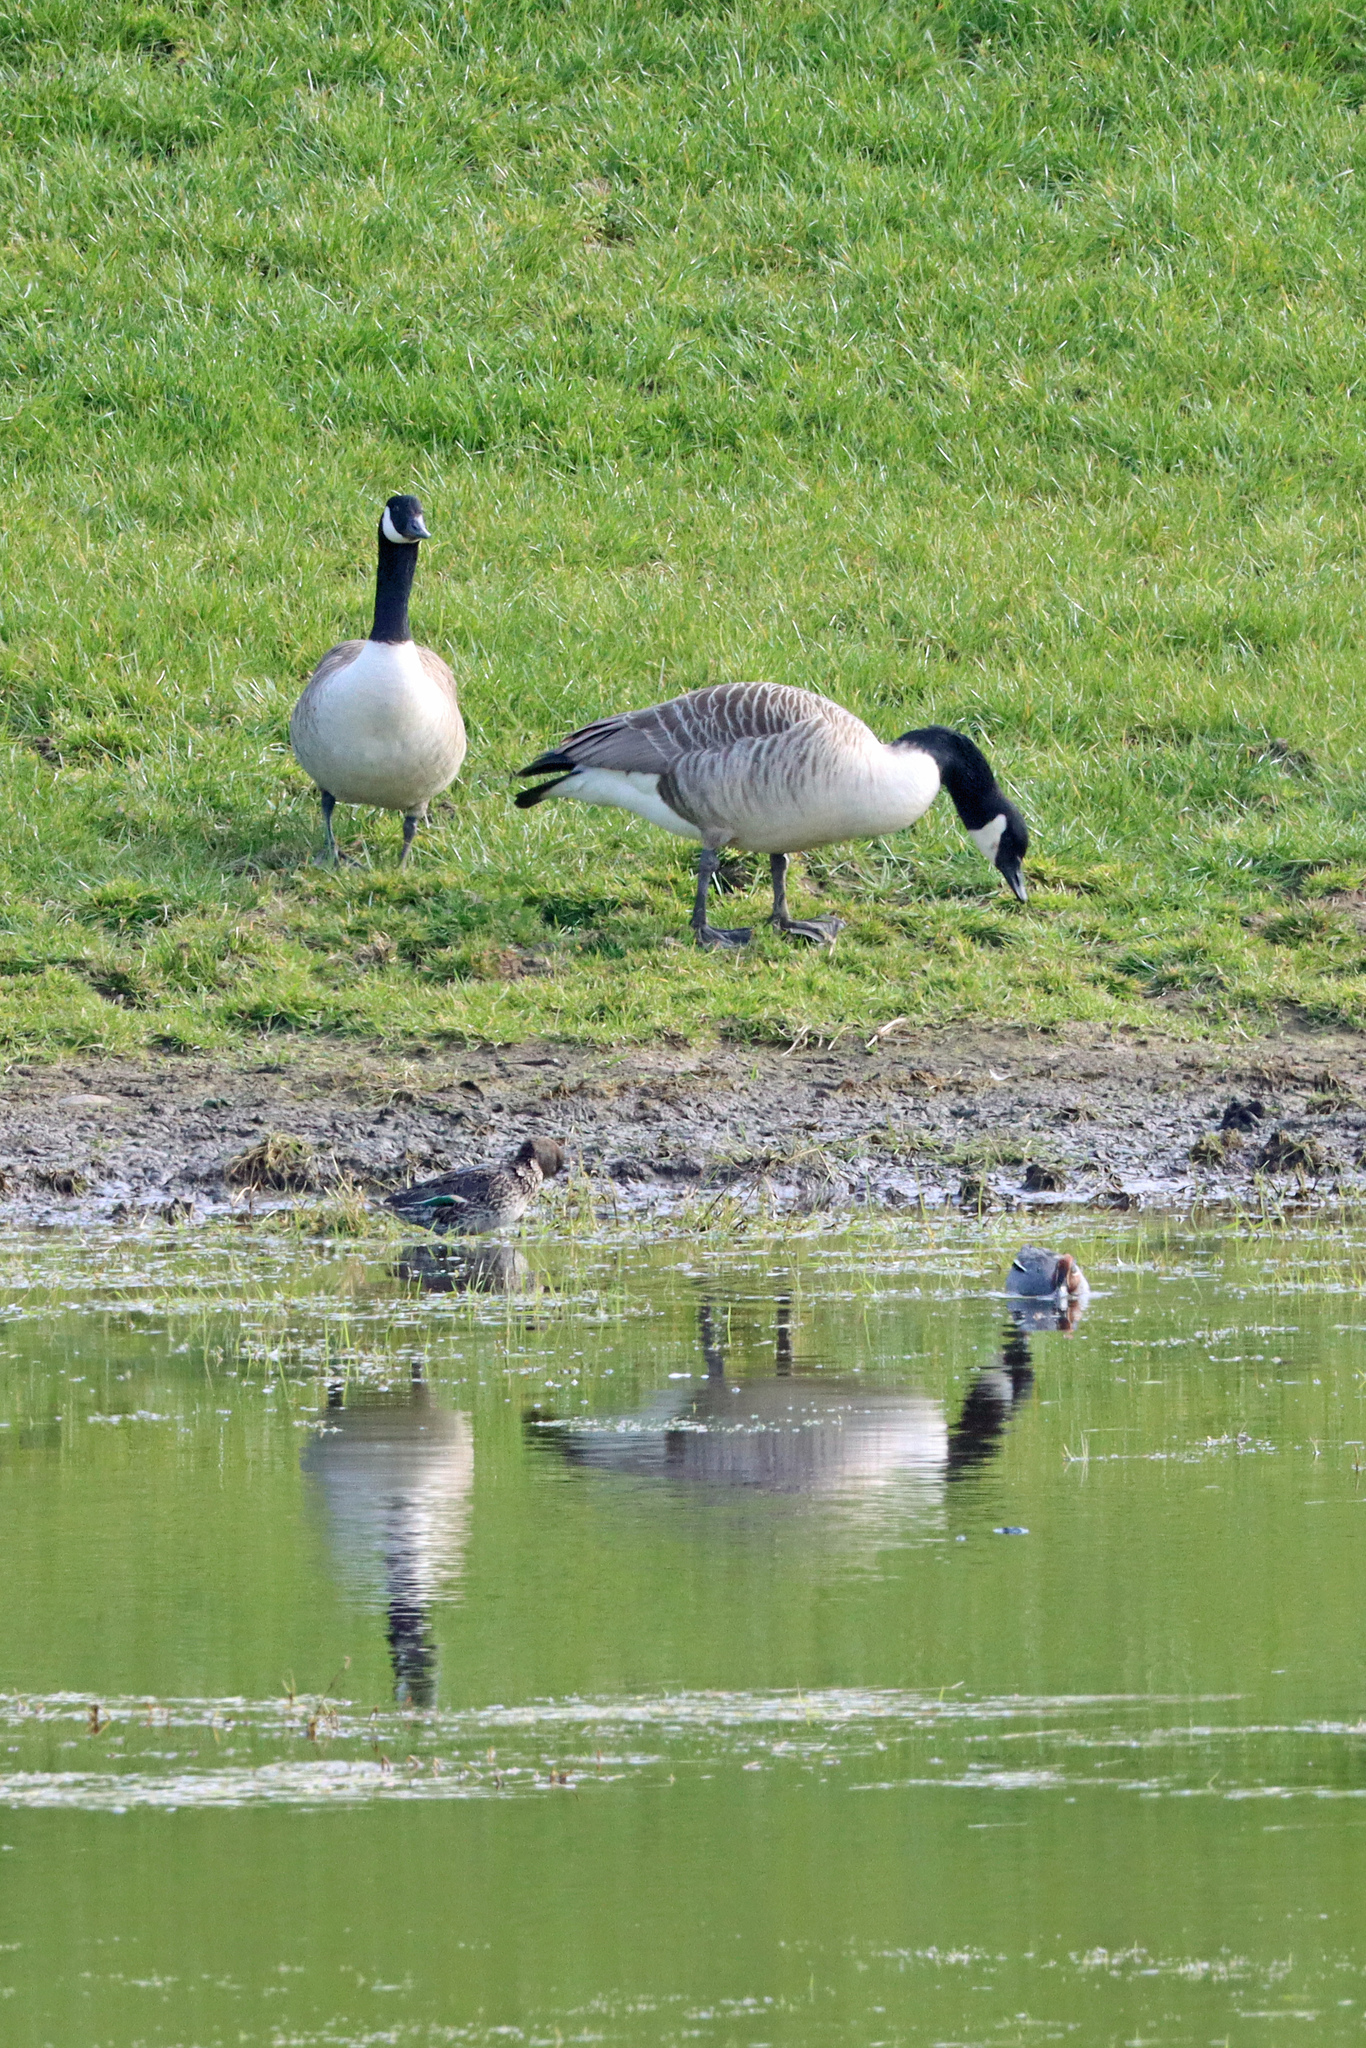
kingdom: Animalia
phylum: Chordata
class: Aves
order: Anseriformes
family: Anatidae
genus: Anas
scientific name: Anas crecca
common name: Eurasian teal
